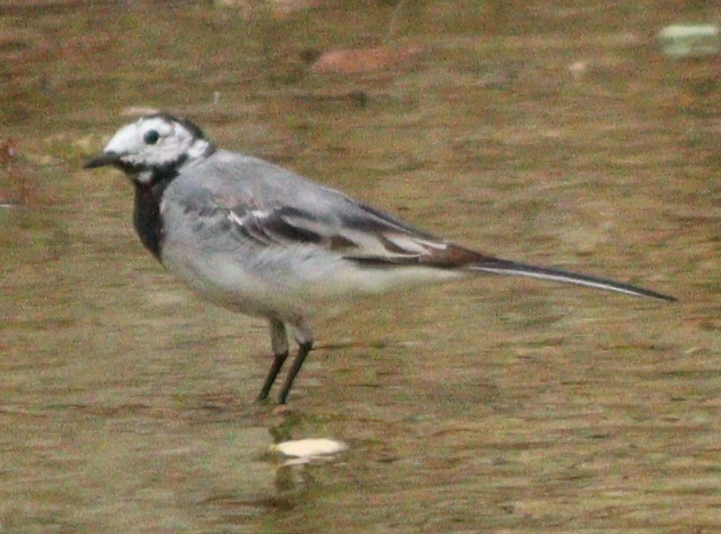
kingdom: Animalia
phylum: Chordata
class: Aves
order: Passeriformes
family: Motacillidae
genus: Motacilla
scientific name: Motacilla alba
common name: White wagtail
